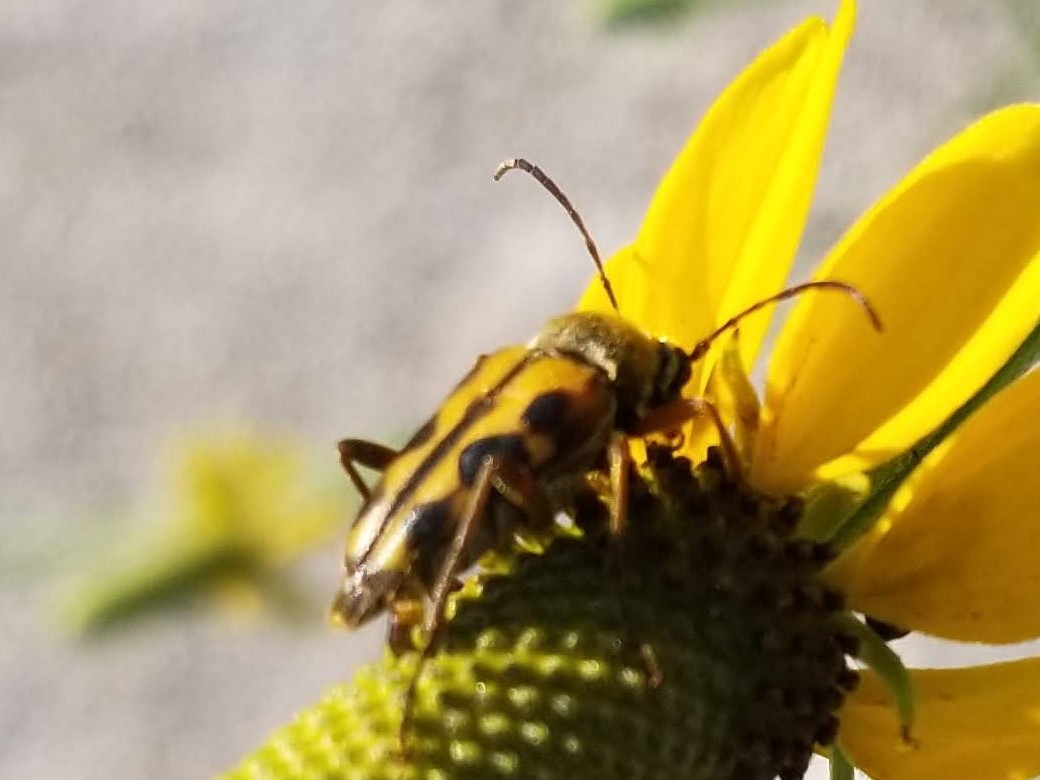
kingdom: Animalia
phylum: Arthropoda
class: Insecta
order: Coleoptera
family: Cerambycidae
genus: Typocerus
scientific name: Typocerus octonotatus
